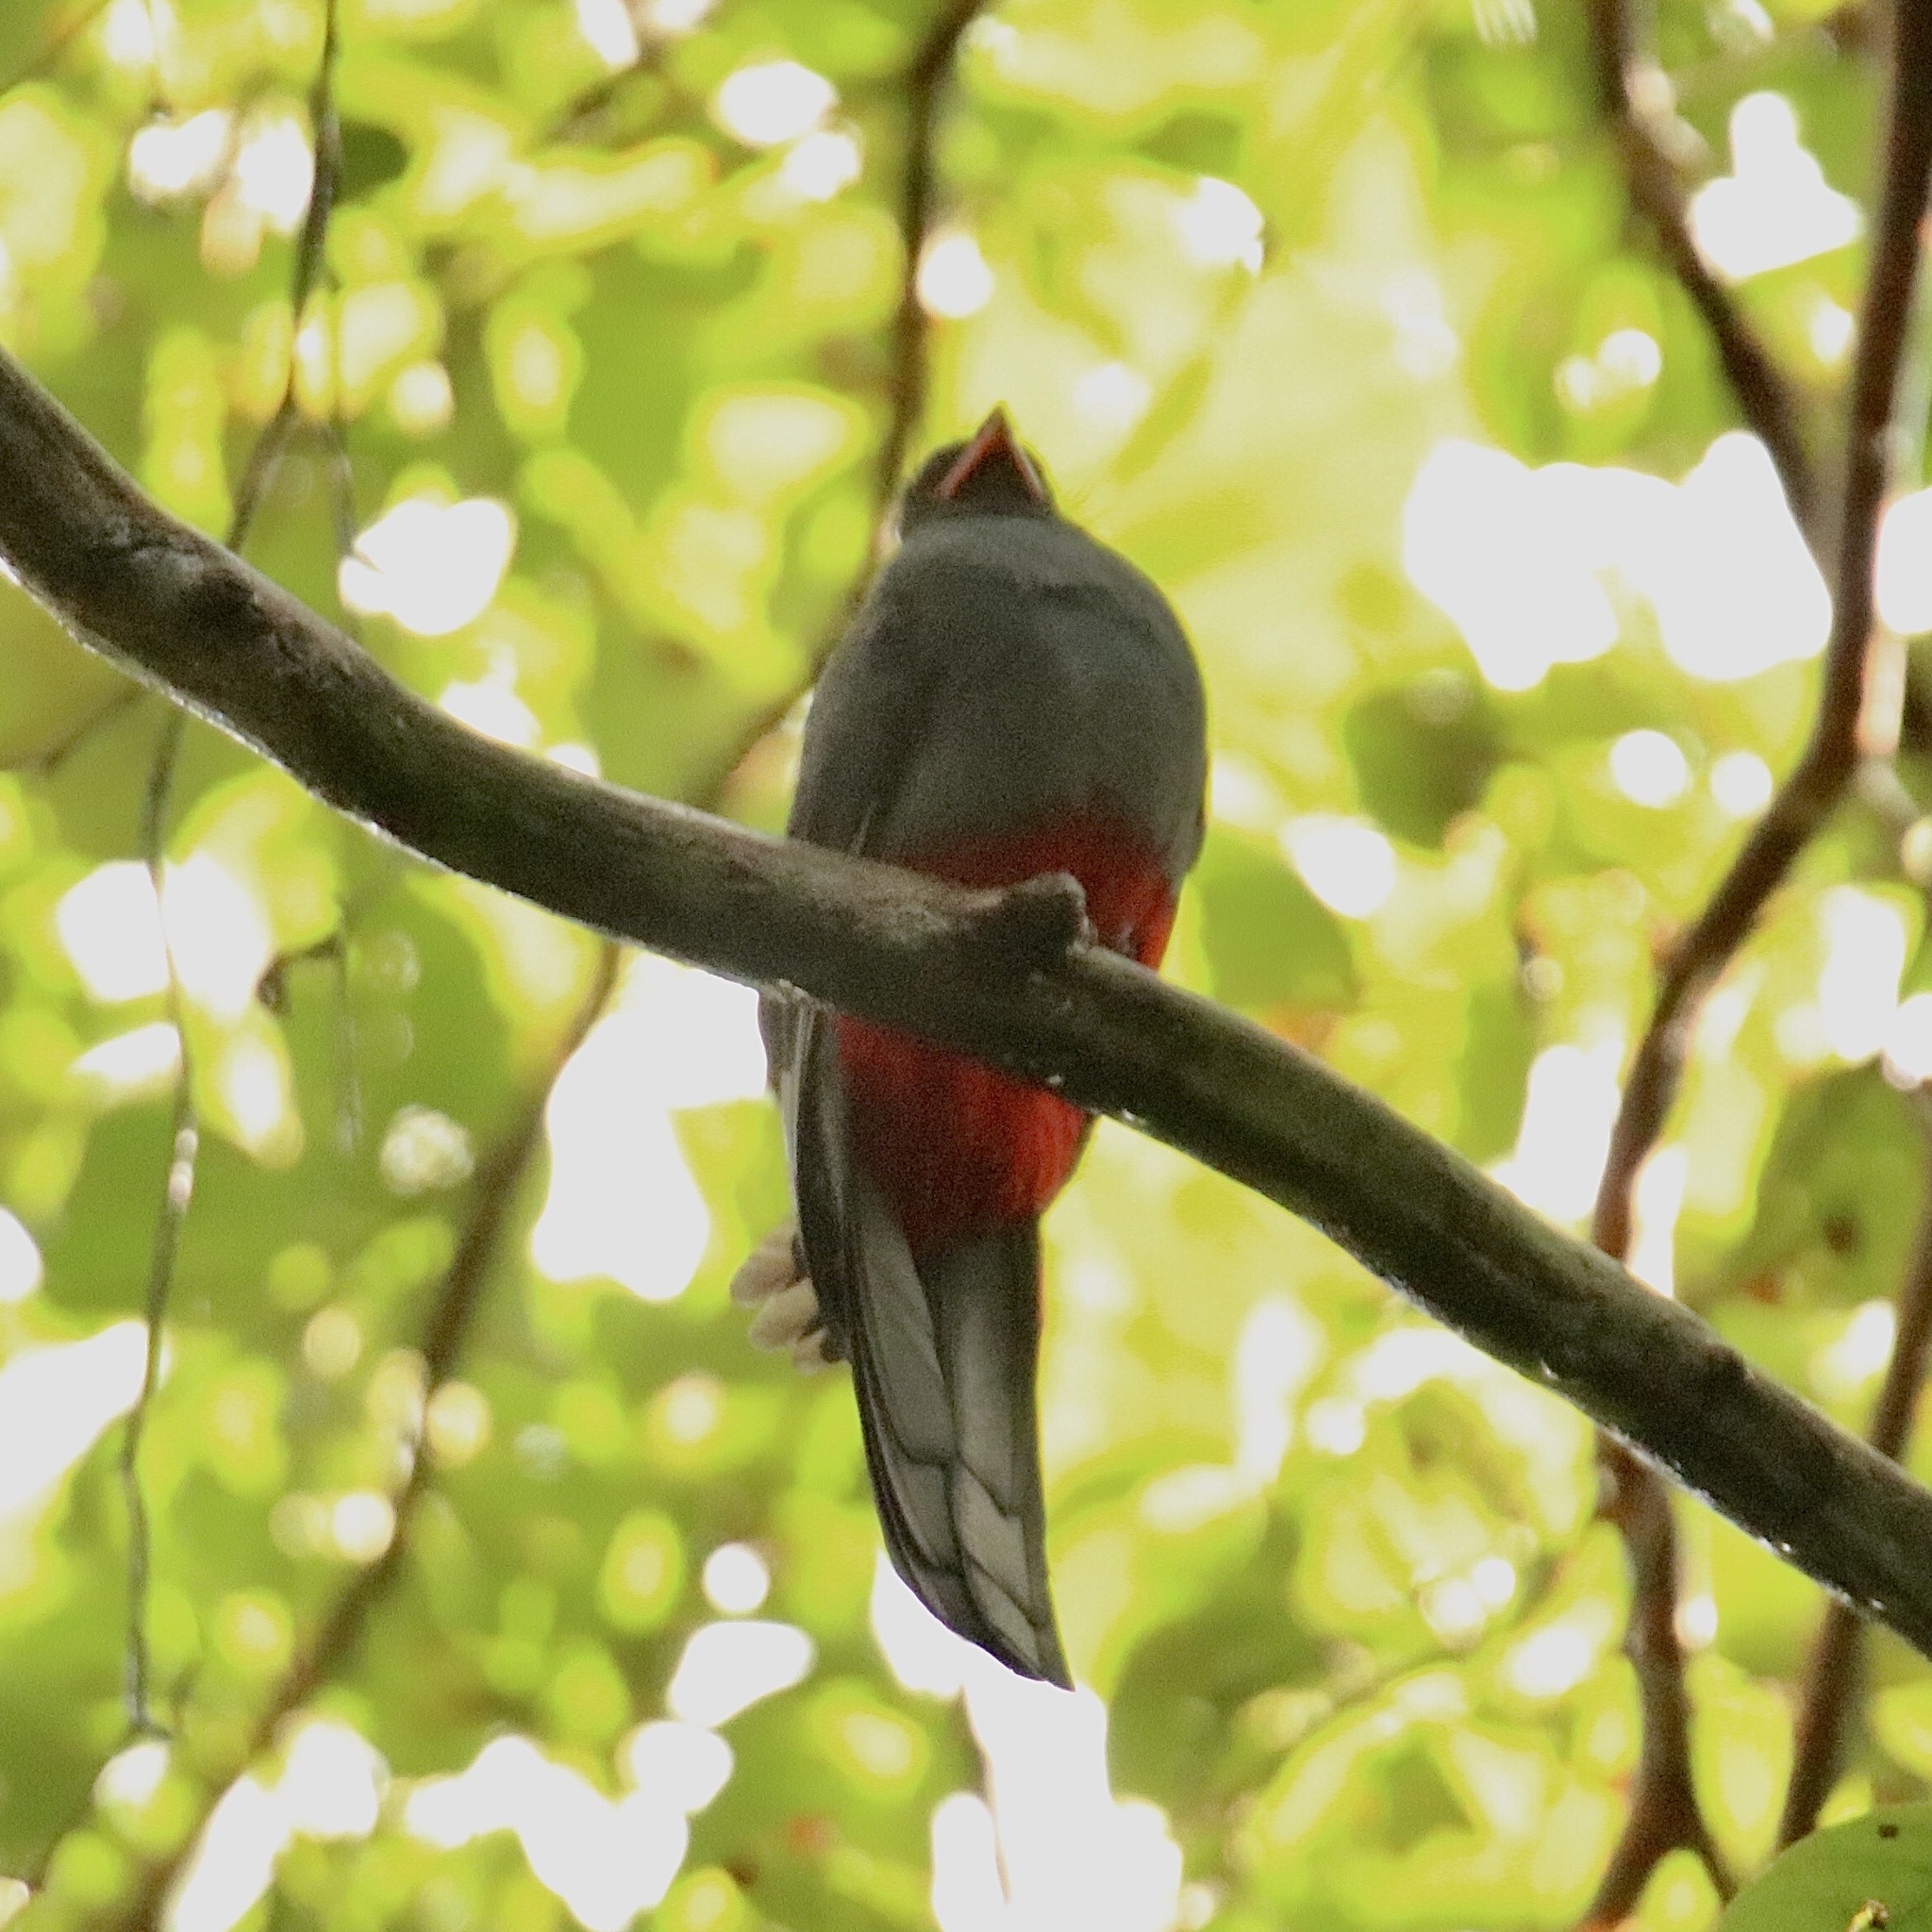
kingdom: Animalia
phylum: Chordata
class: Aves
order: Trogoniformes
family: Trogonidae
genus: Trogon
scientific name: Trogon massena
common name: Slaty-tailed trogon
